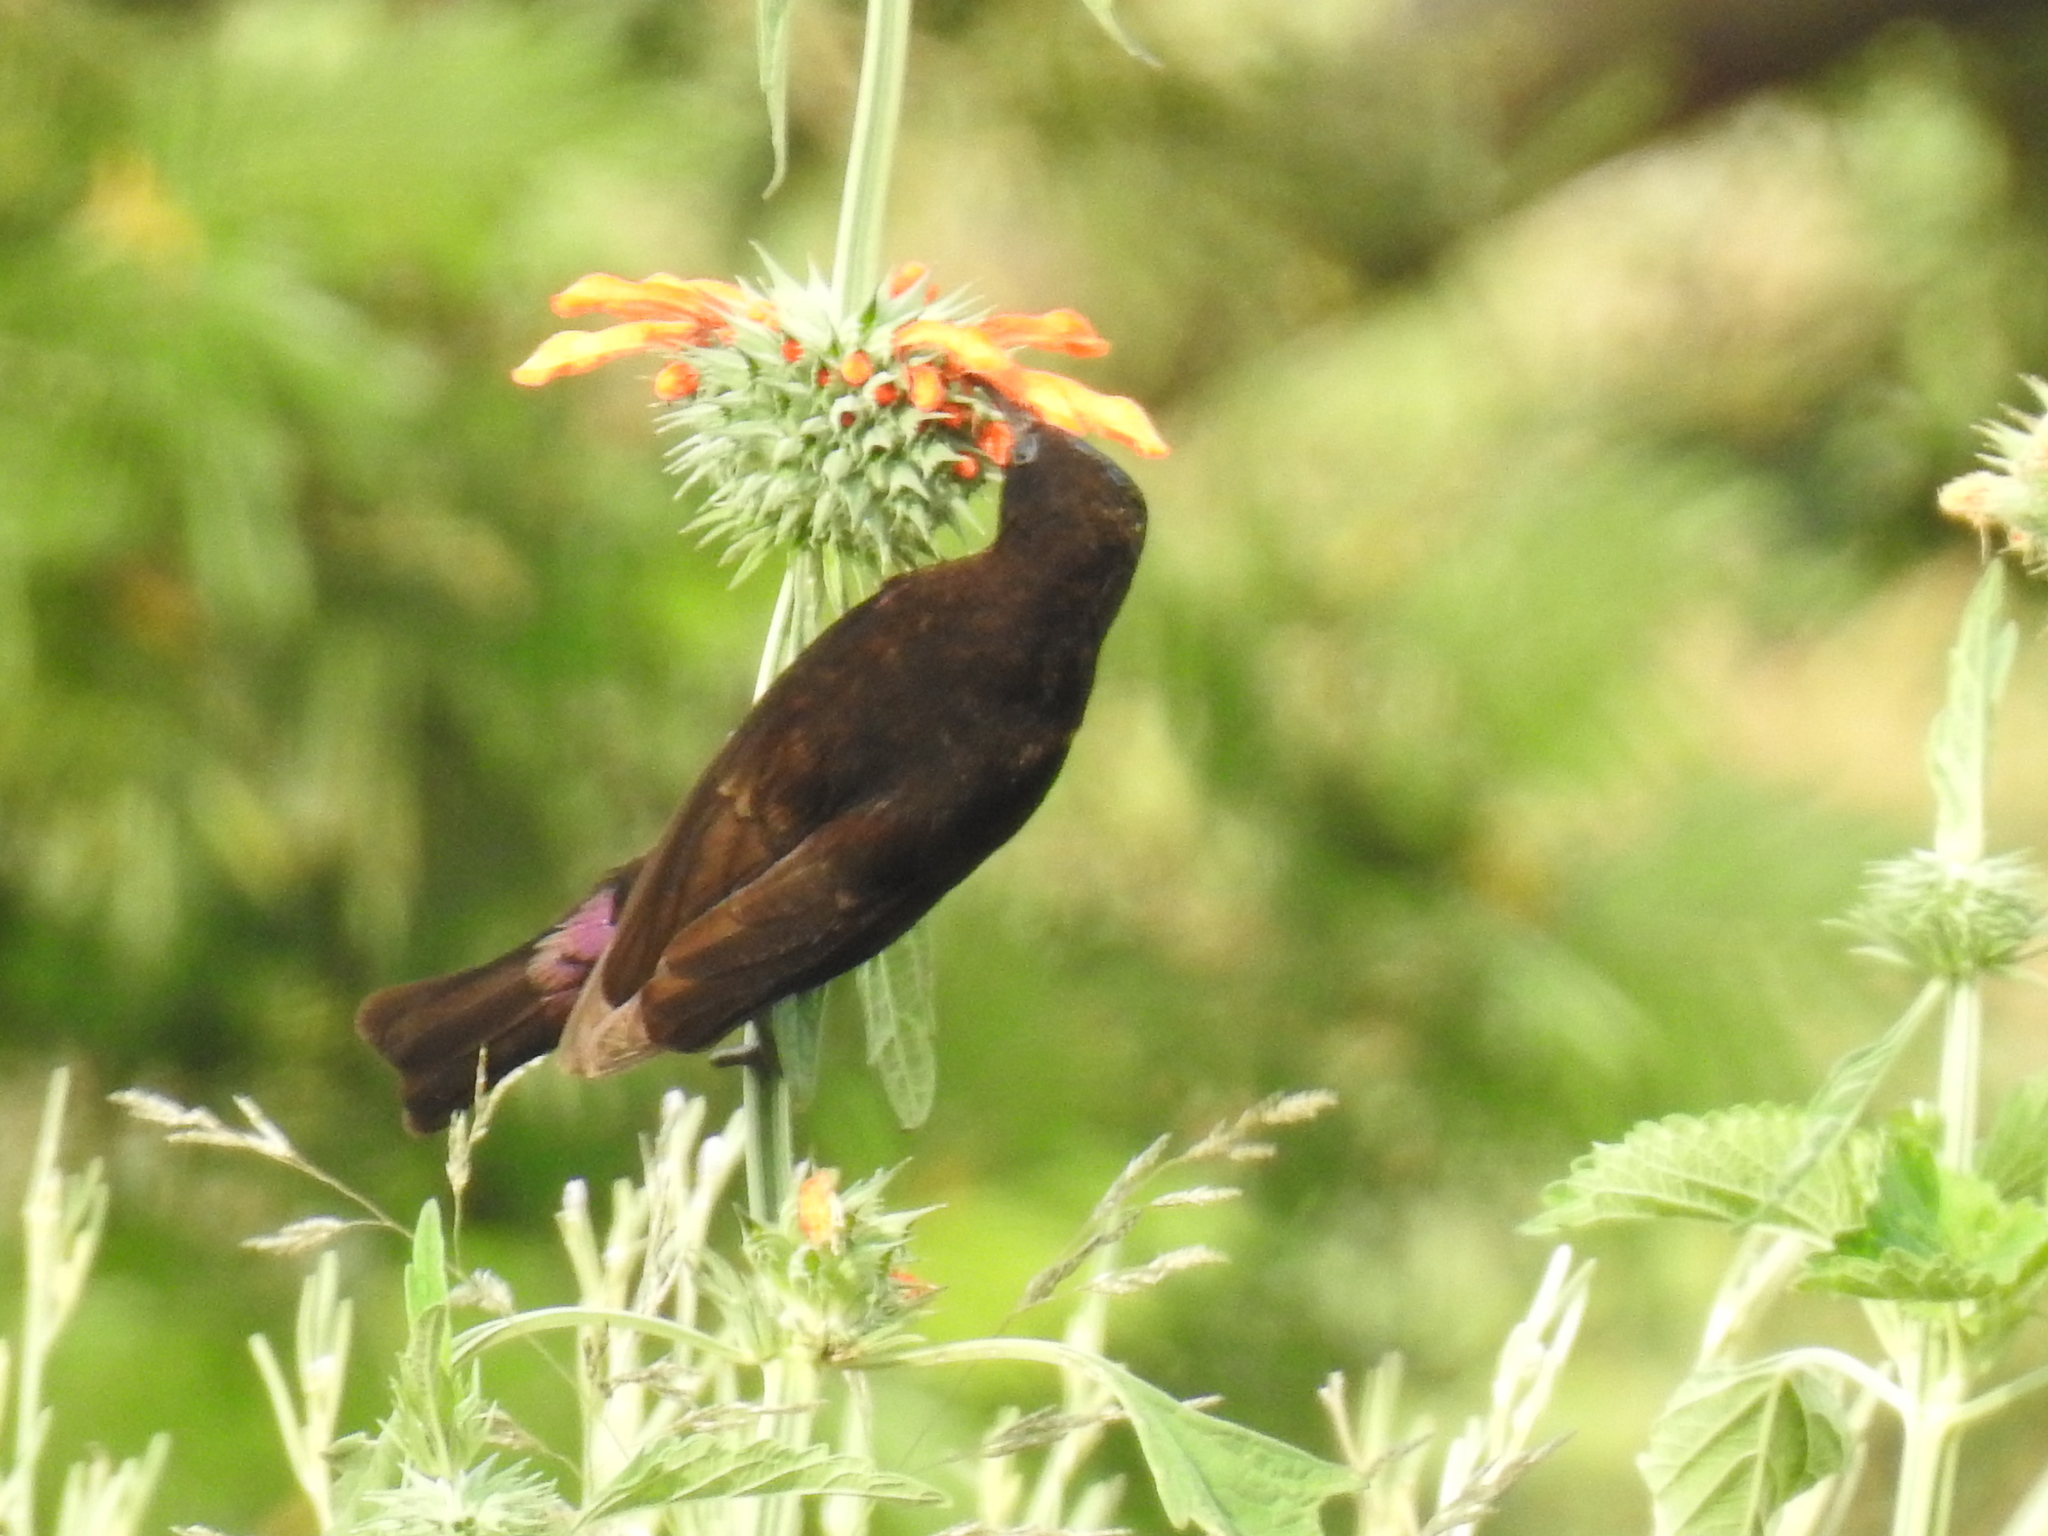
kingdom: Animalia
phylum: Chordata
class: Aves
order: Passeriformes
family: Nectariniidae
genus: Chalcomitra
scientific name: Chalcomitra amethystina
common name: Amethyst sunbird
